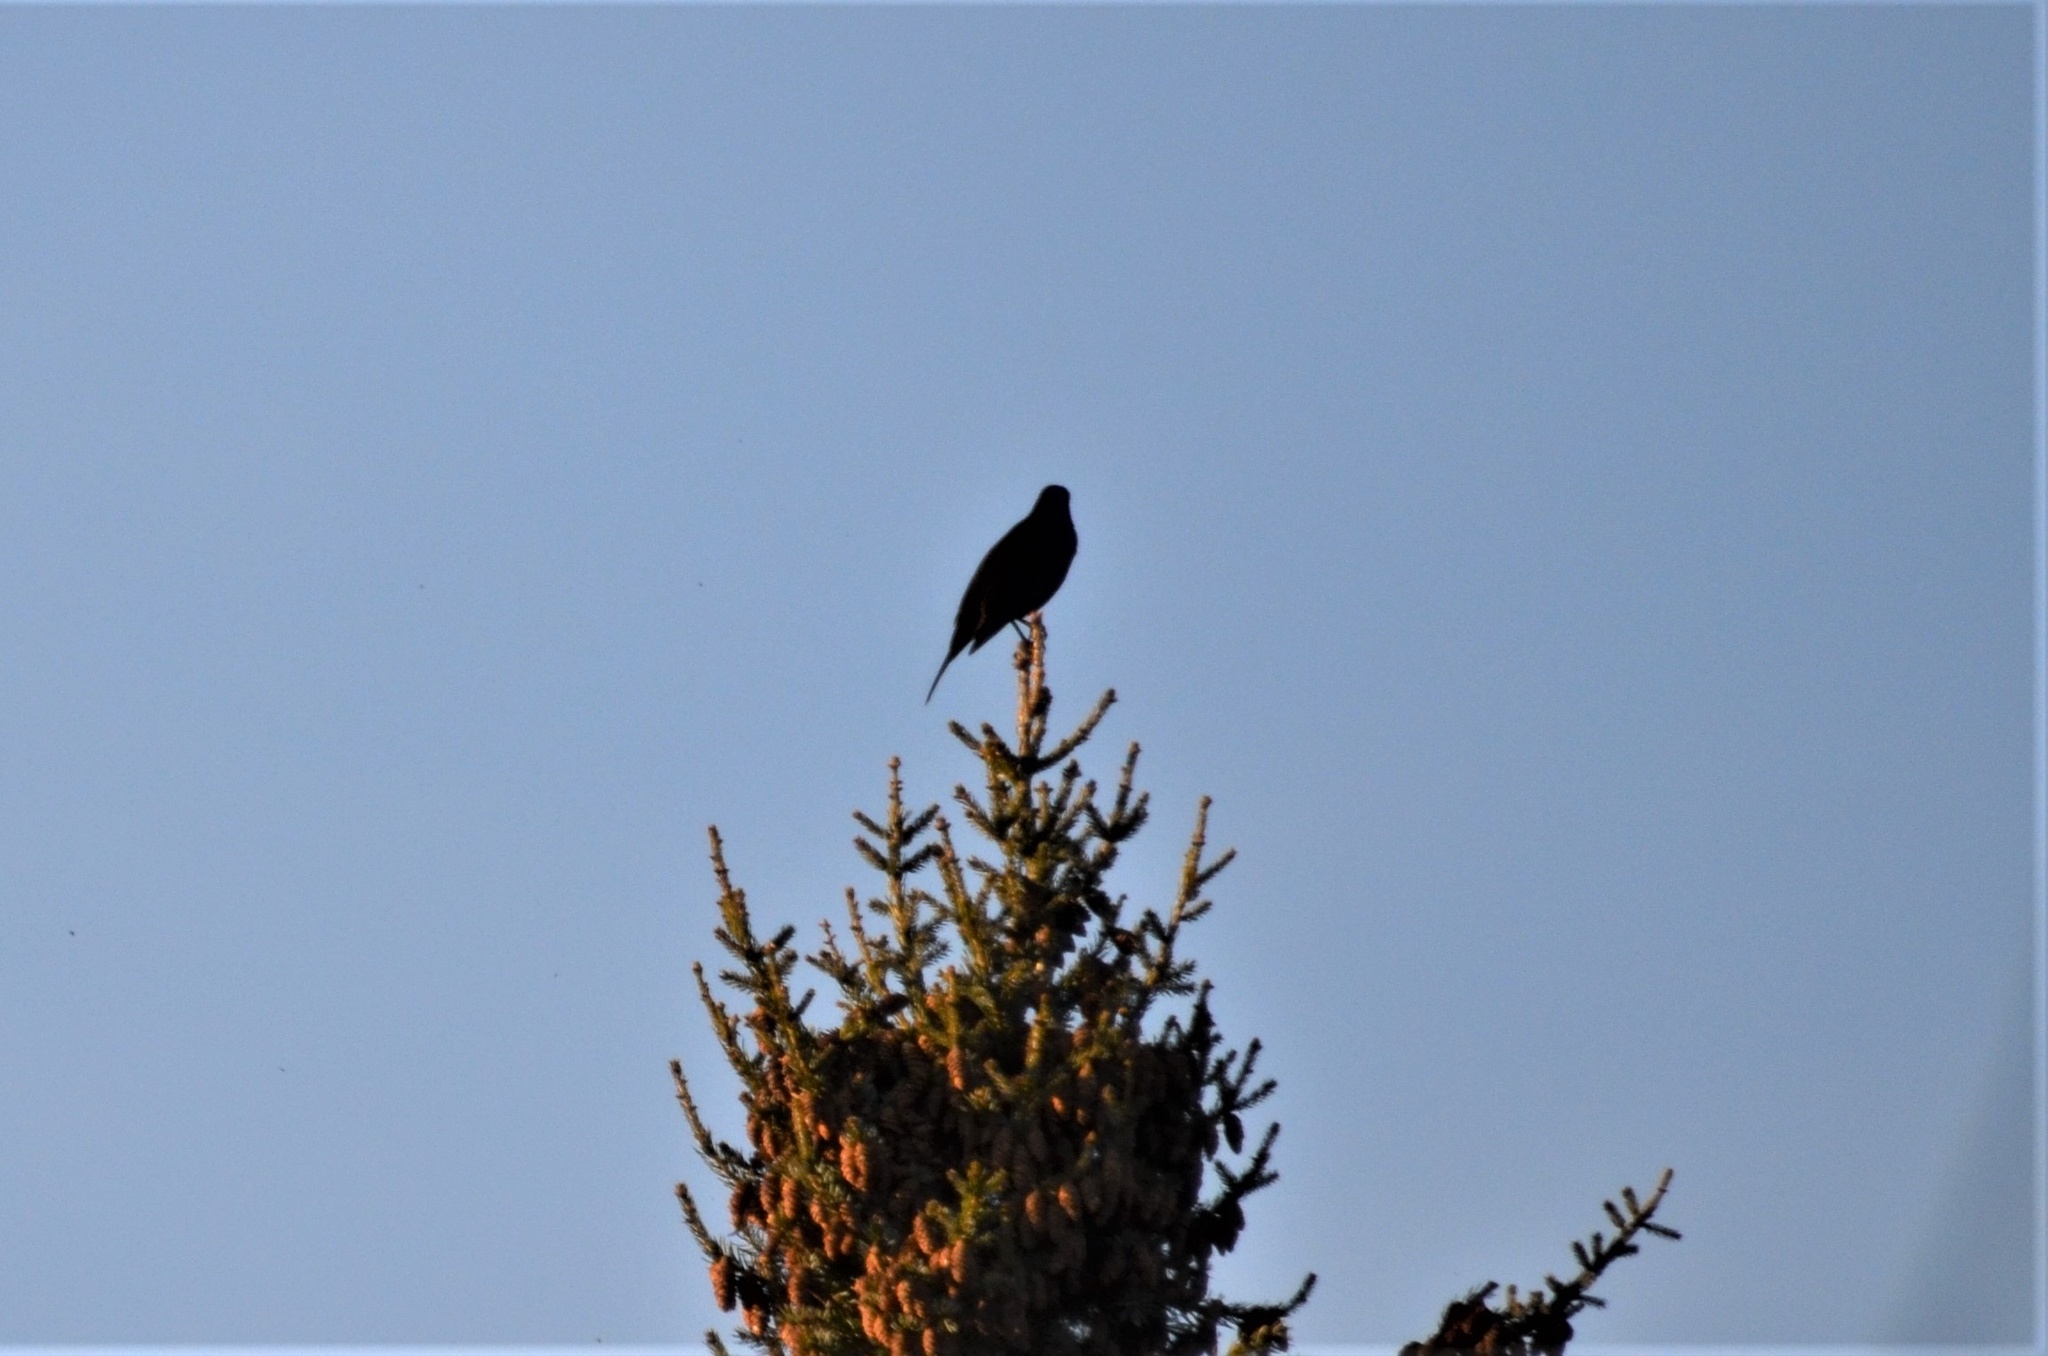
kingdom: Animalia
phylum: Chordata
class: Aves
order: Passeriformes
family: Turdidae
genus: Turdus
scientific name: Turdus merula
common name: Common blackbird
